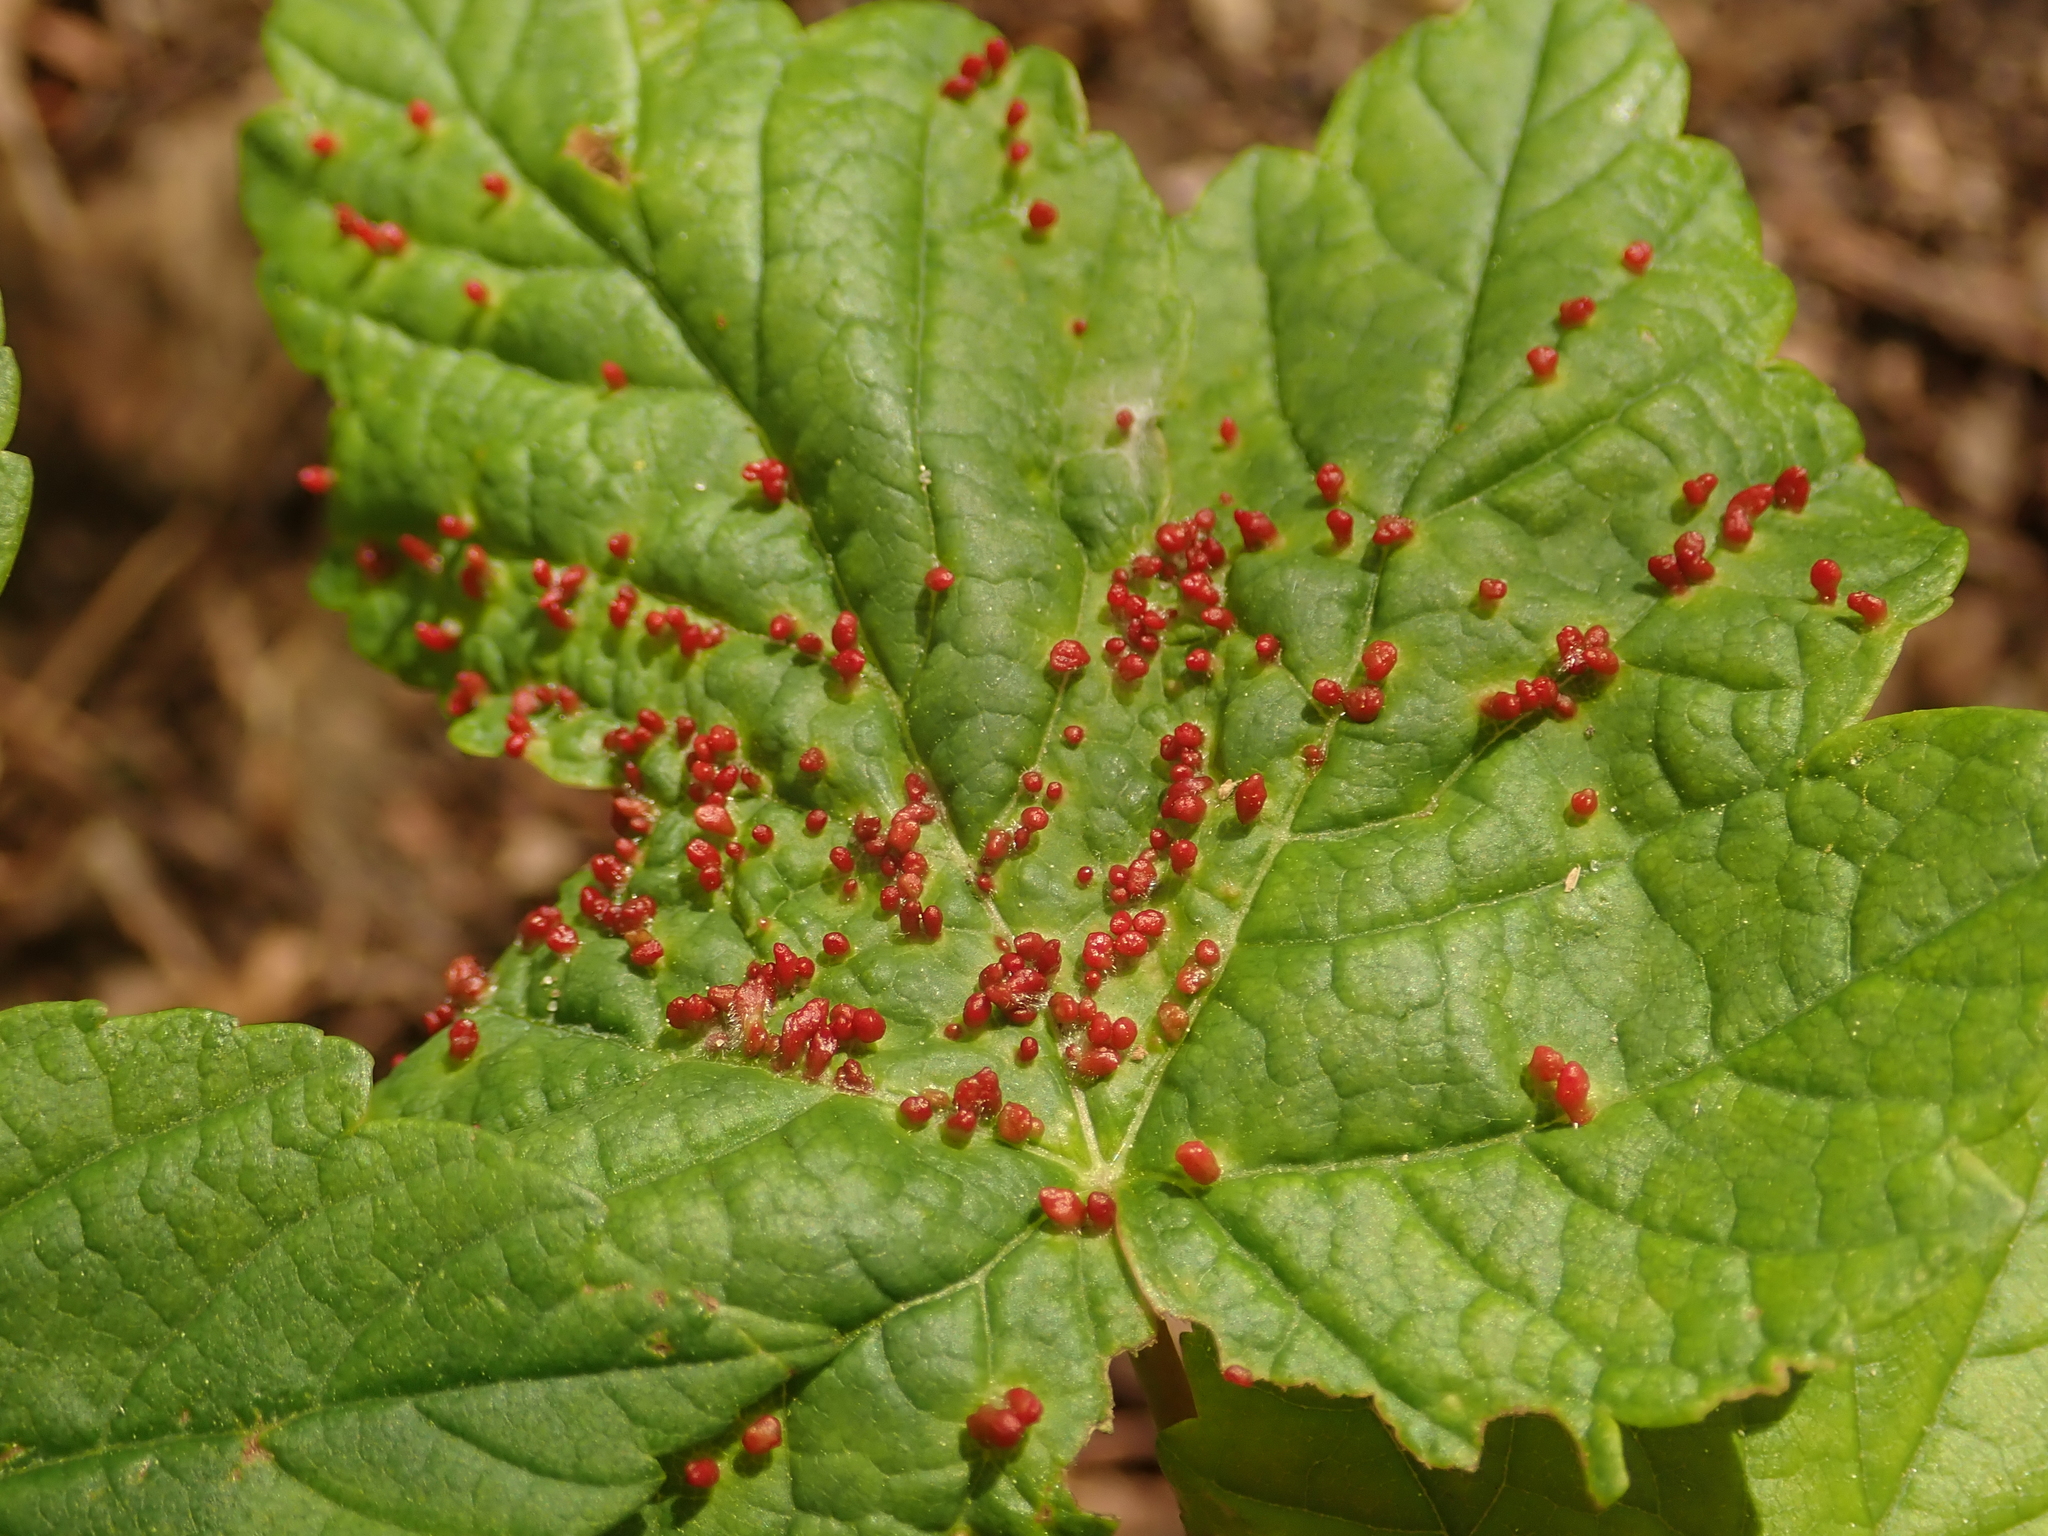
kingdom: Animalia
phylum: Arthropoda
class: Arachnida
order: Trombidiformes
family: Eriophyidae
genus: Aceria
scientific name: Aceria cephaloneus
